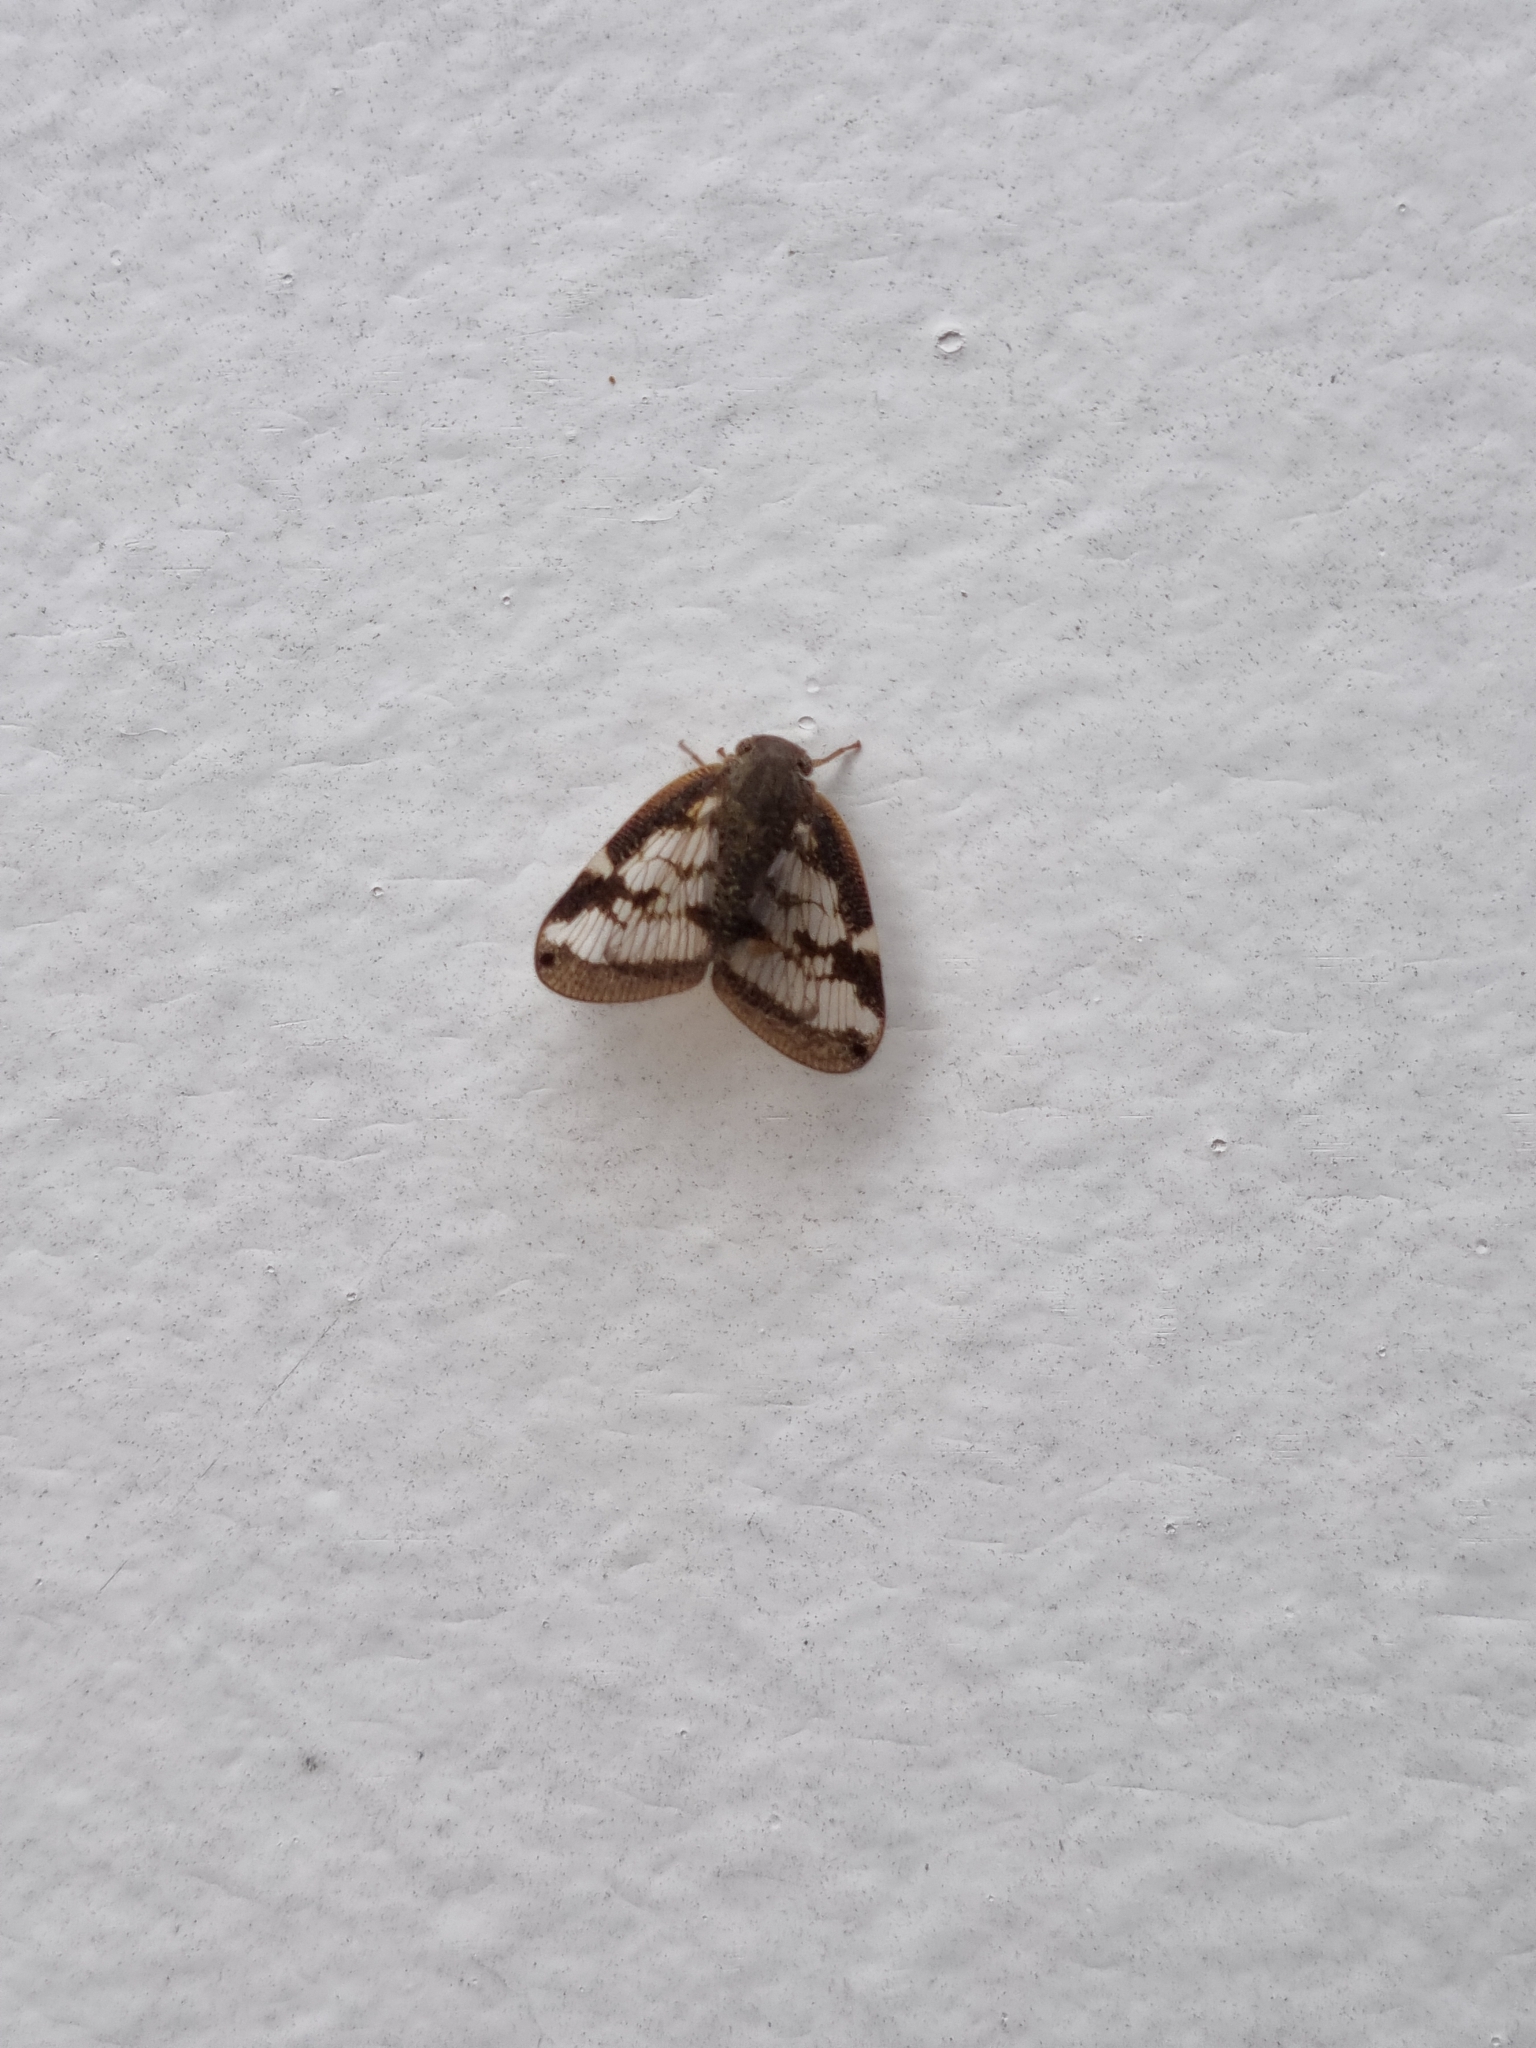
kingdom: Animalia
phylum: Arthropoda
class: Insecta
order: Hemiptera
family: Ricaniidae
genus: Scolypopa
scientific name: Scolypopa australis
